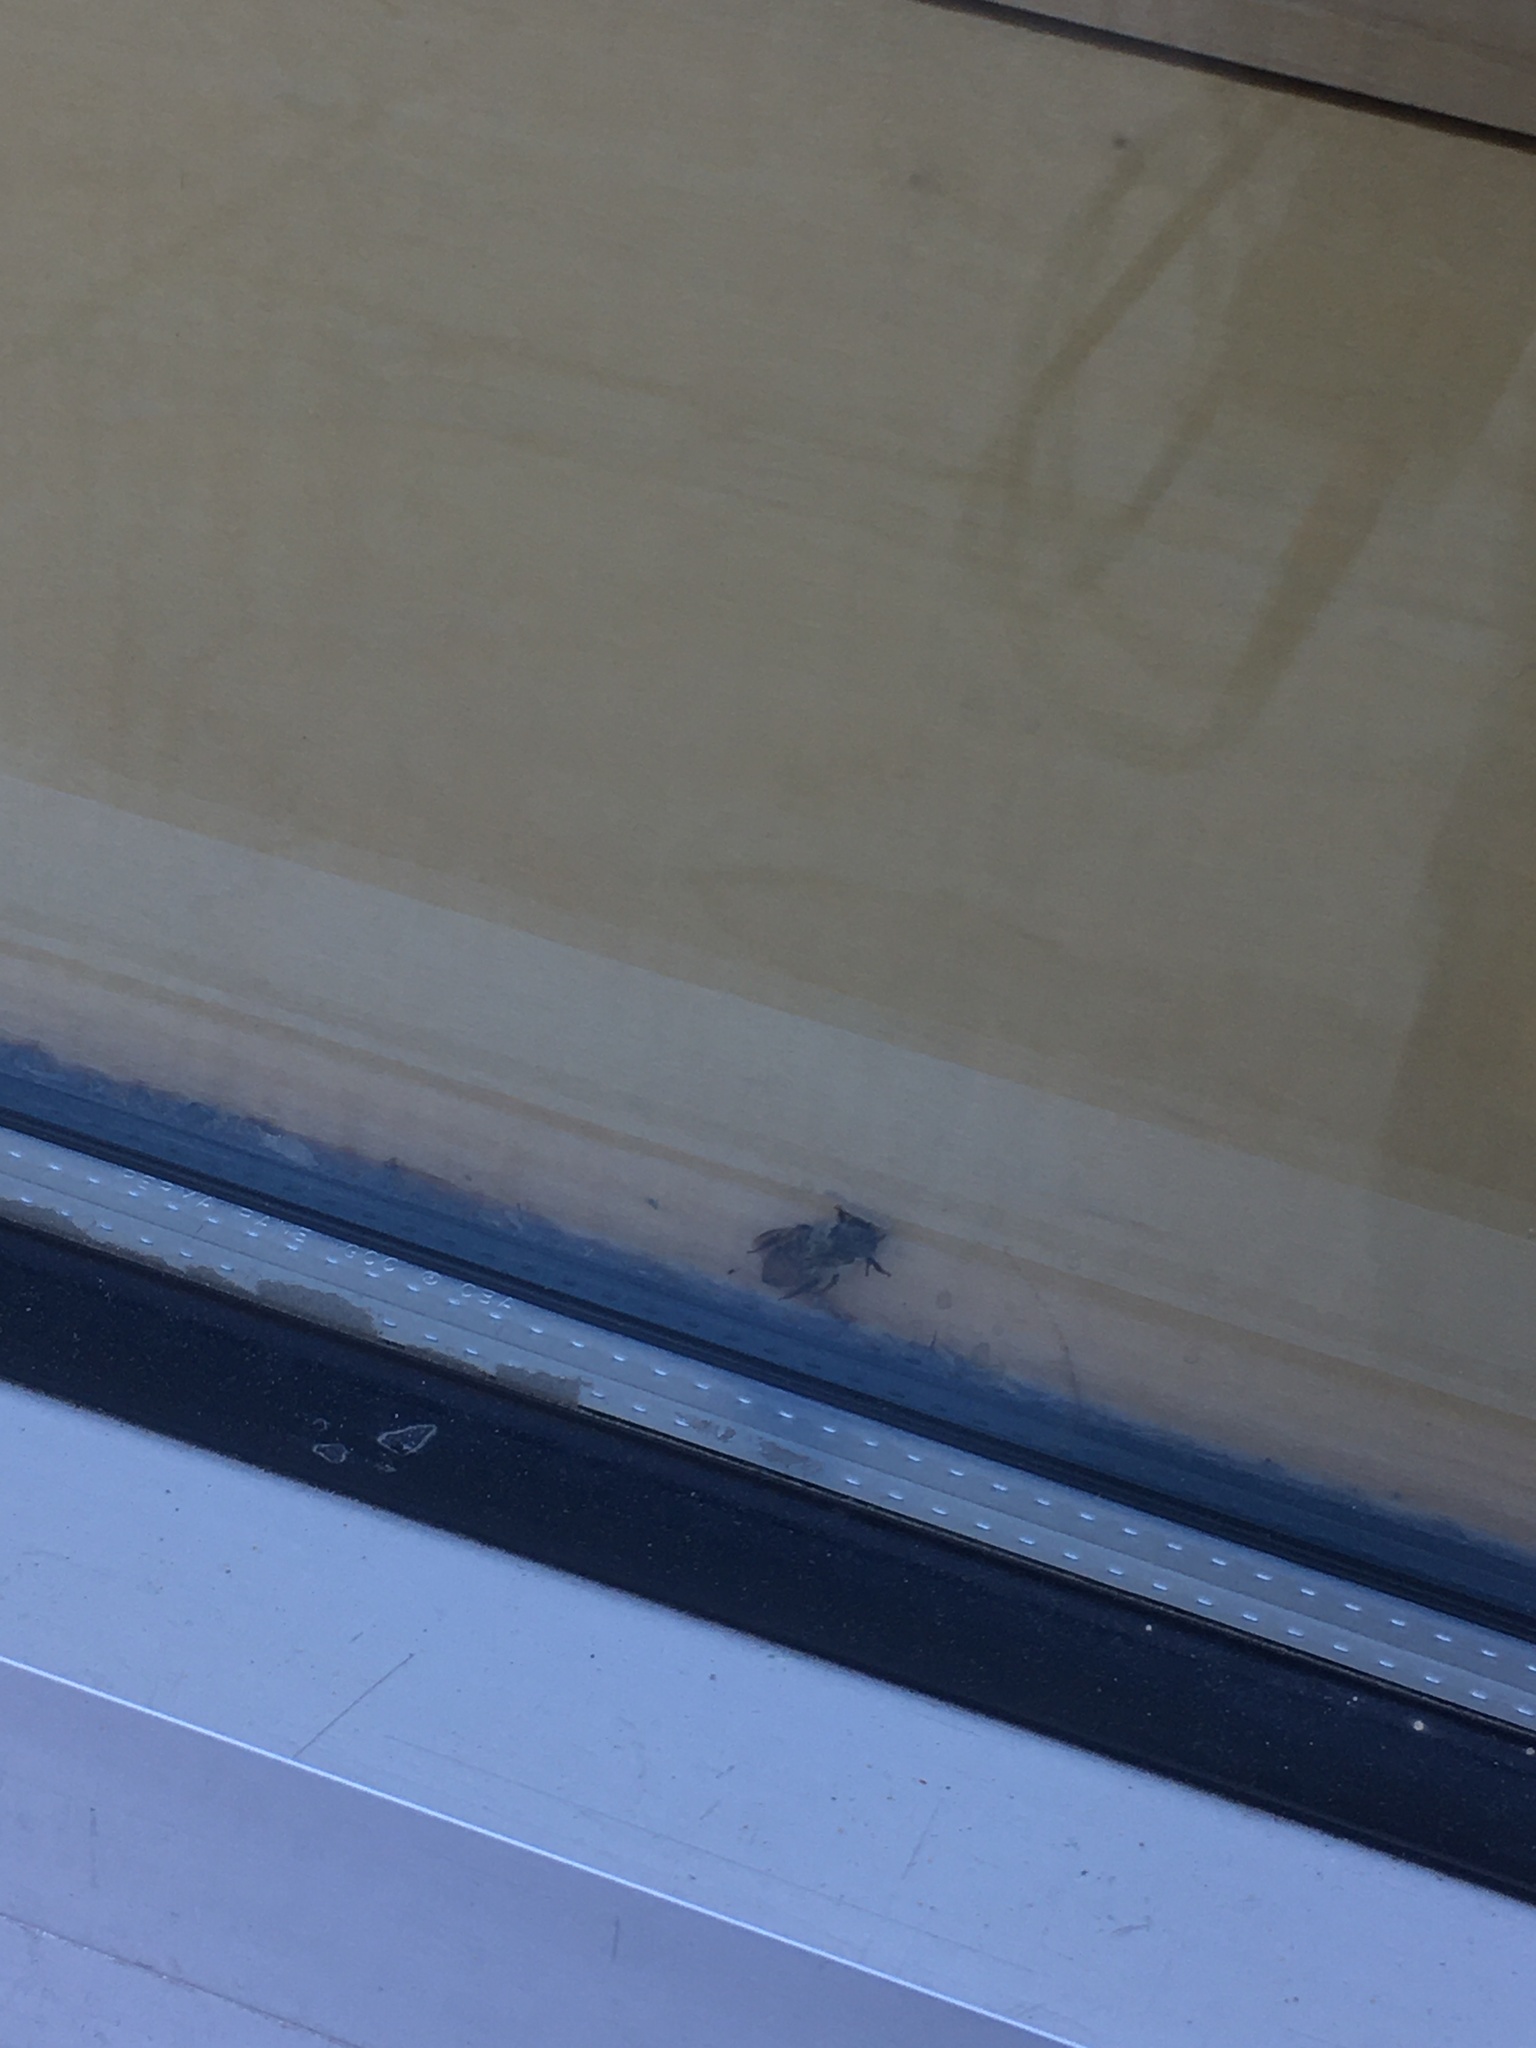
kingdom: Animalia
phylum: Arthropoda
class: Insecta
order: Hymenoptera
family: Apidae
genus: Apis
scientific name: Apis mellifera
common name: Honey bee
